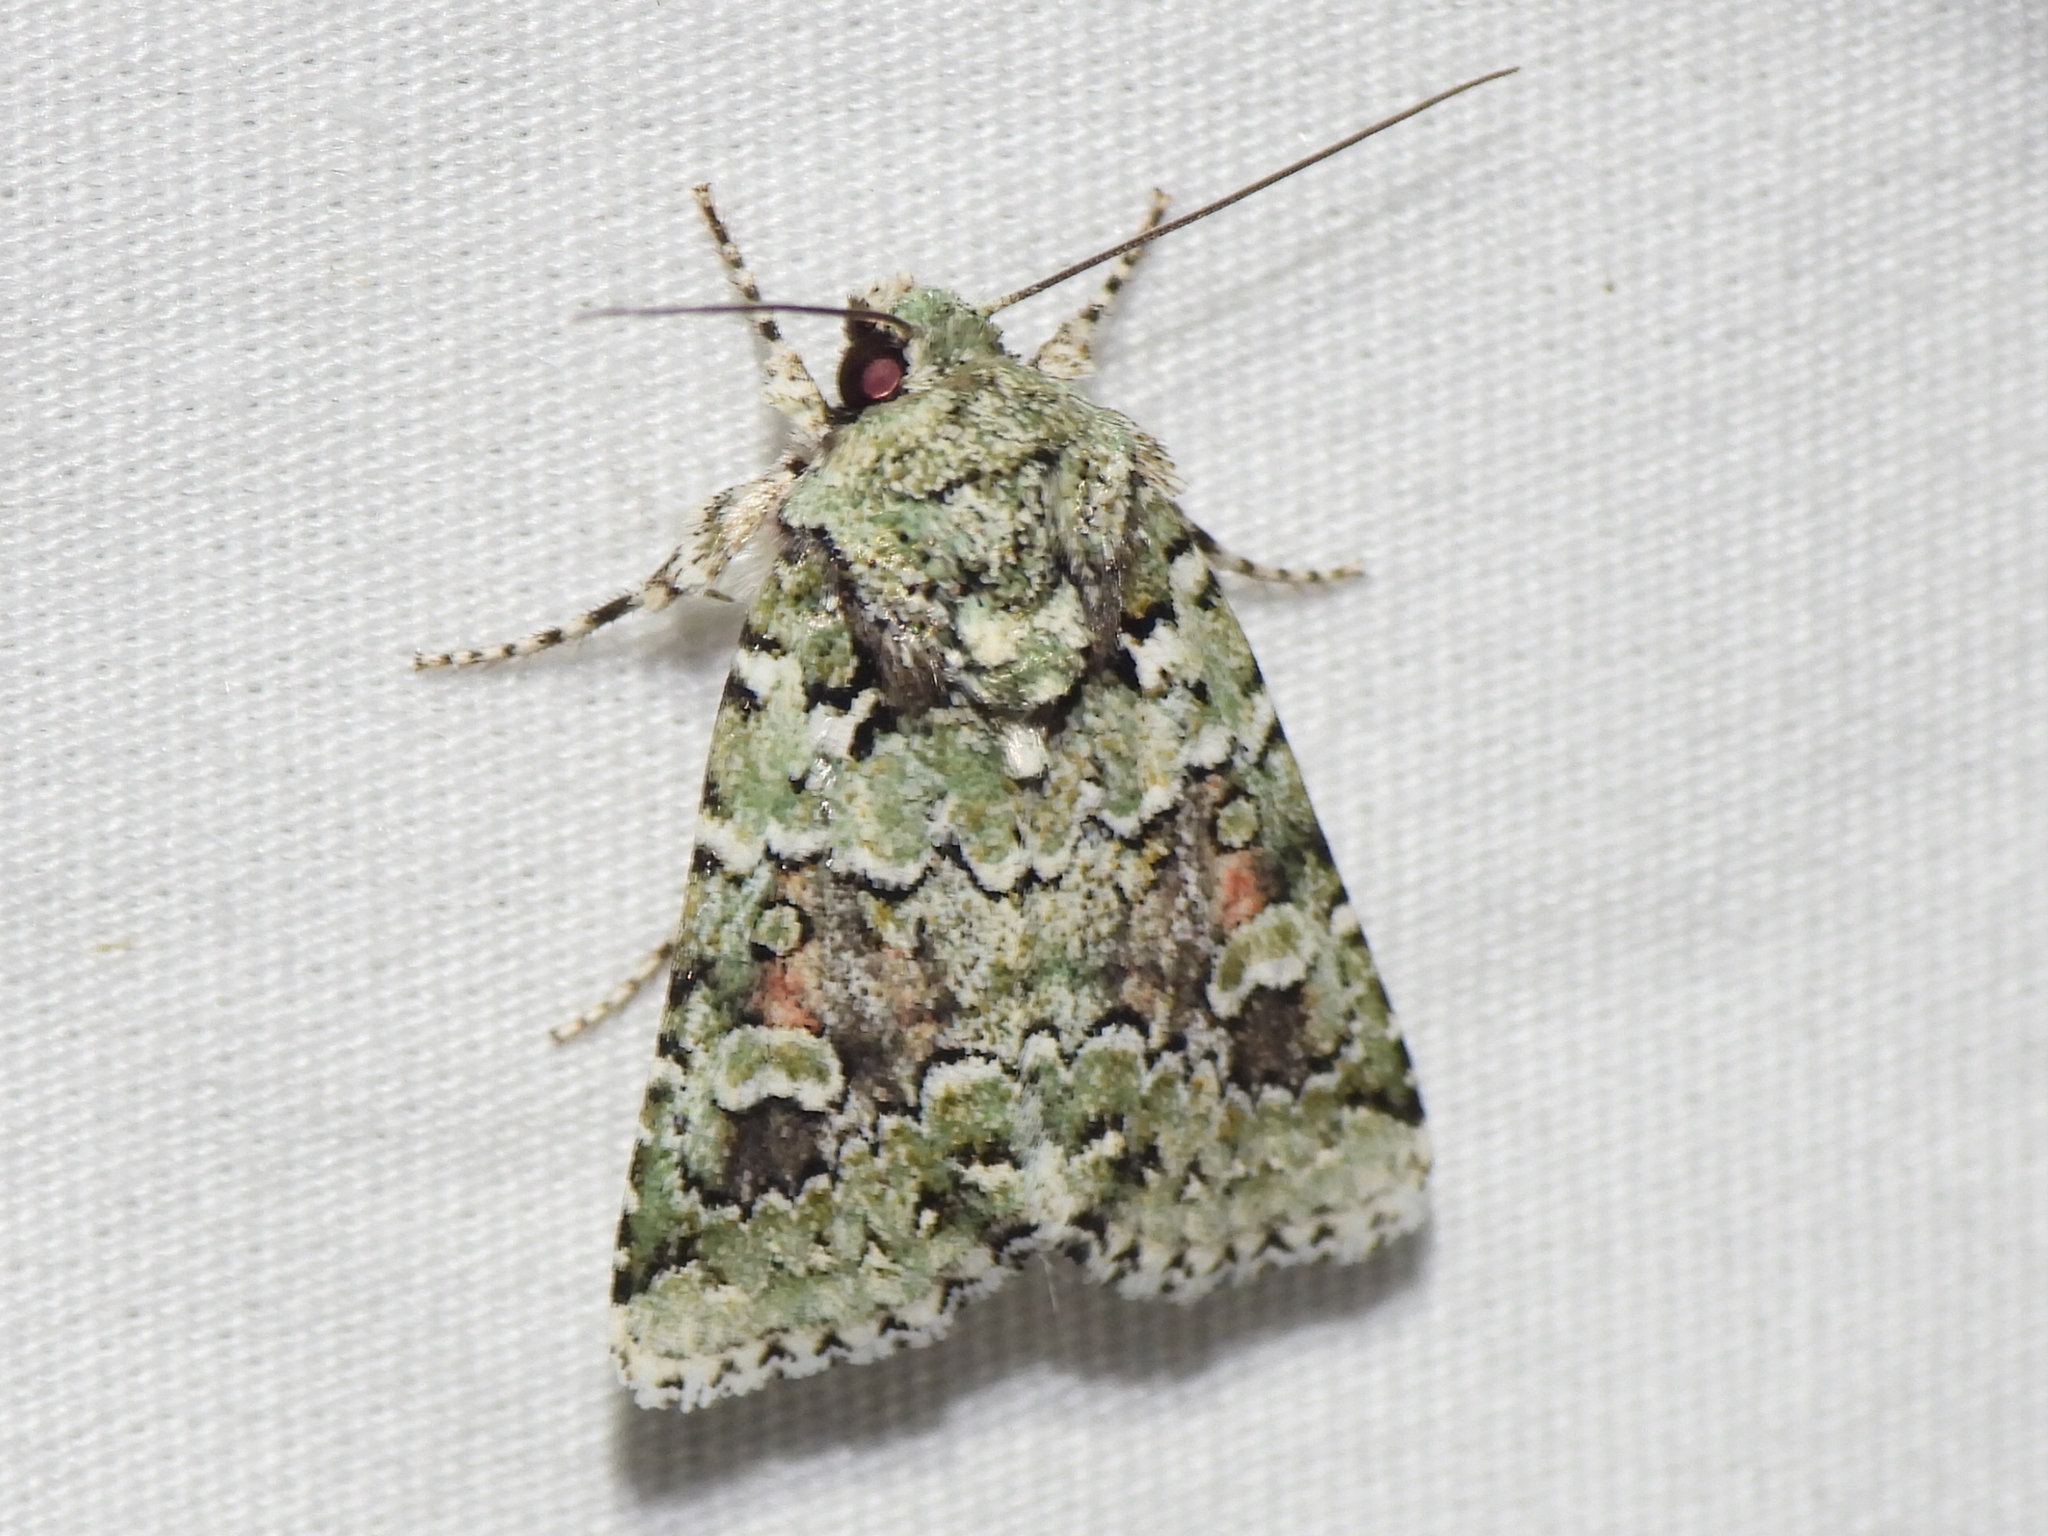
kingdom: Animalia
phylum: Arthropoda
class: Insecta
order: Lepidoptera
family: Noctuidae
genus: Lacinipolia
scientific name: Lacinipolia laudabilis
